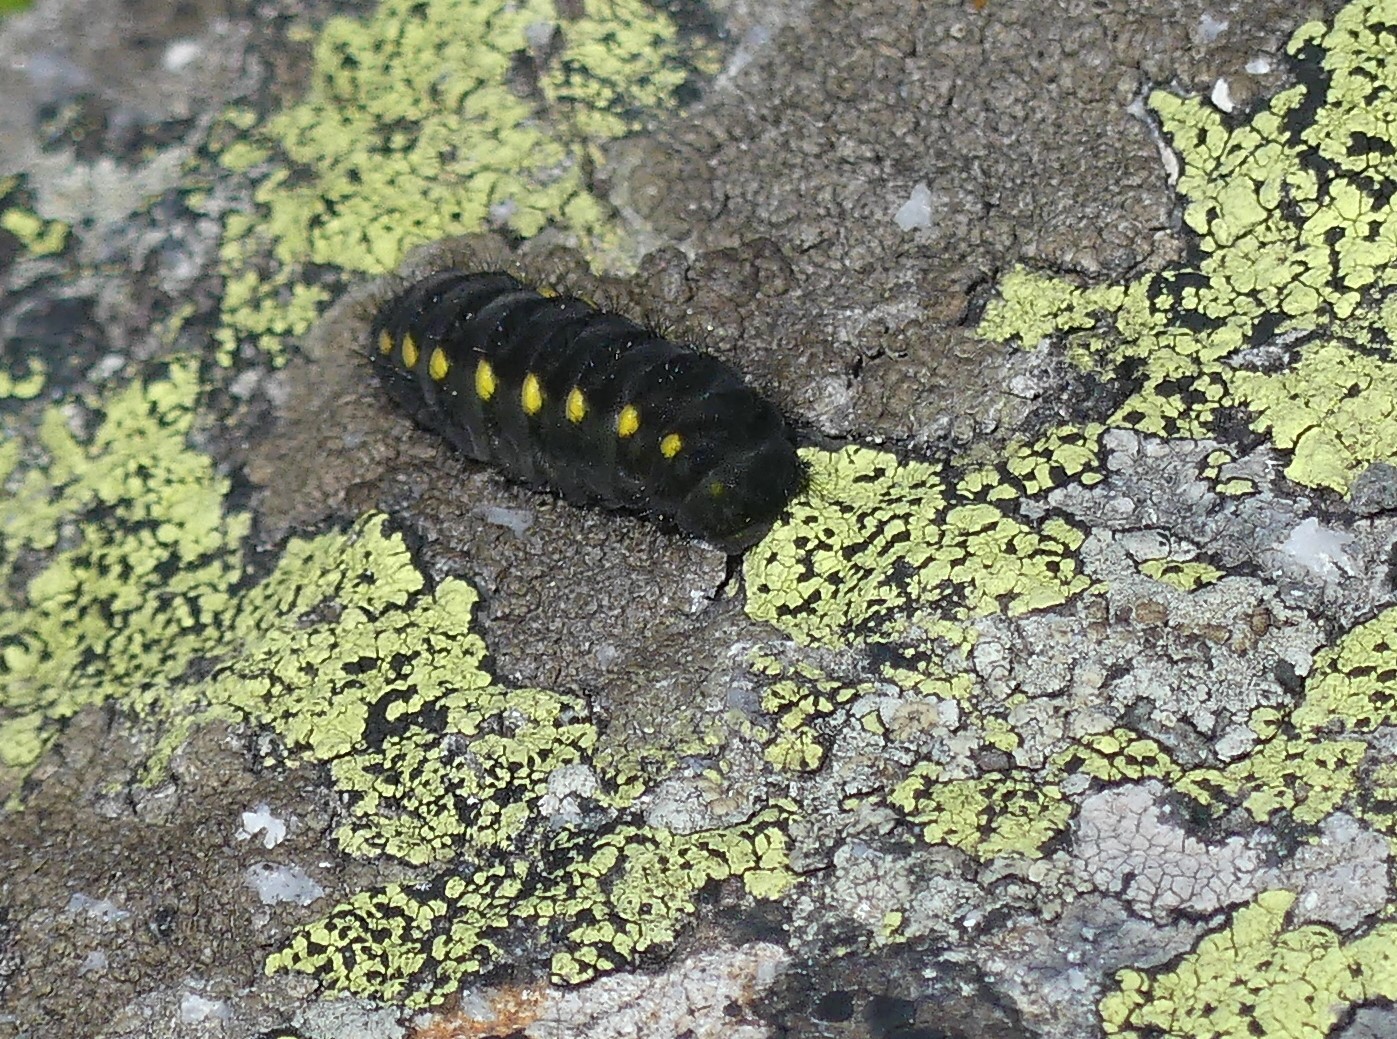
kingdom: Animalia
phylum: Arthropoda
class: Insecta
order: Lepidoptera
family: Zygaenidae
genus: Zygaena
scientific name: Zygaena exulans
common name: Scotch burnet
